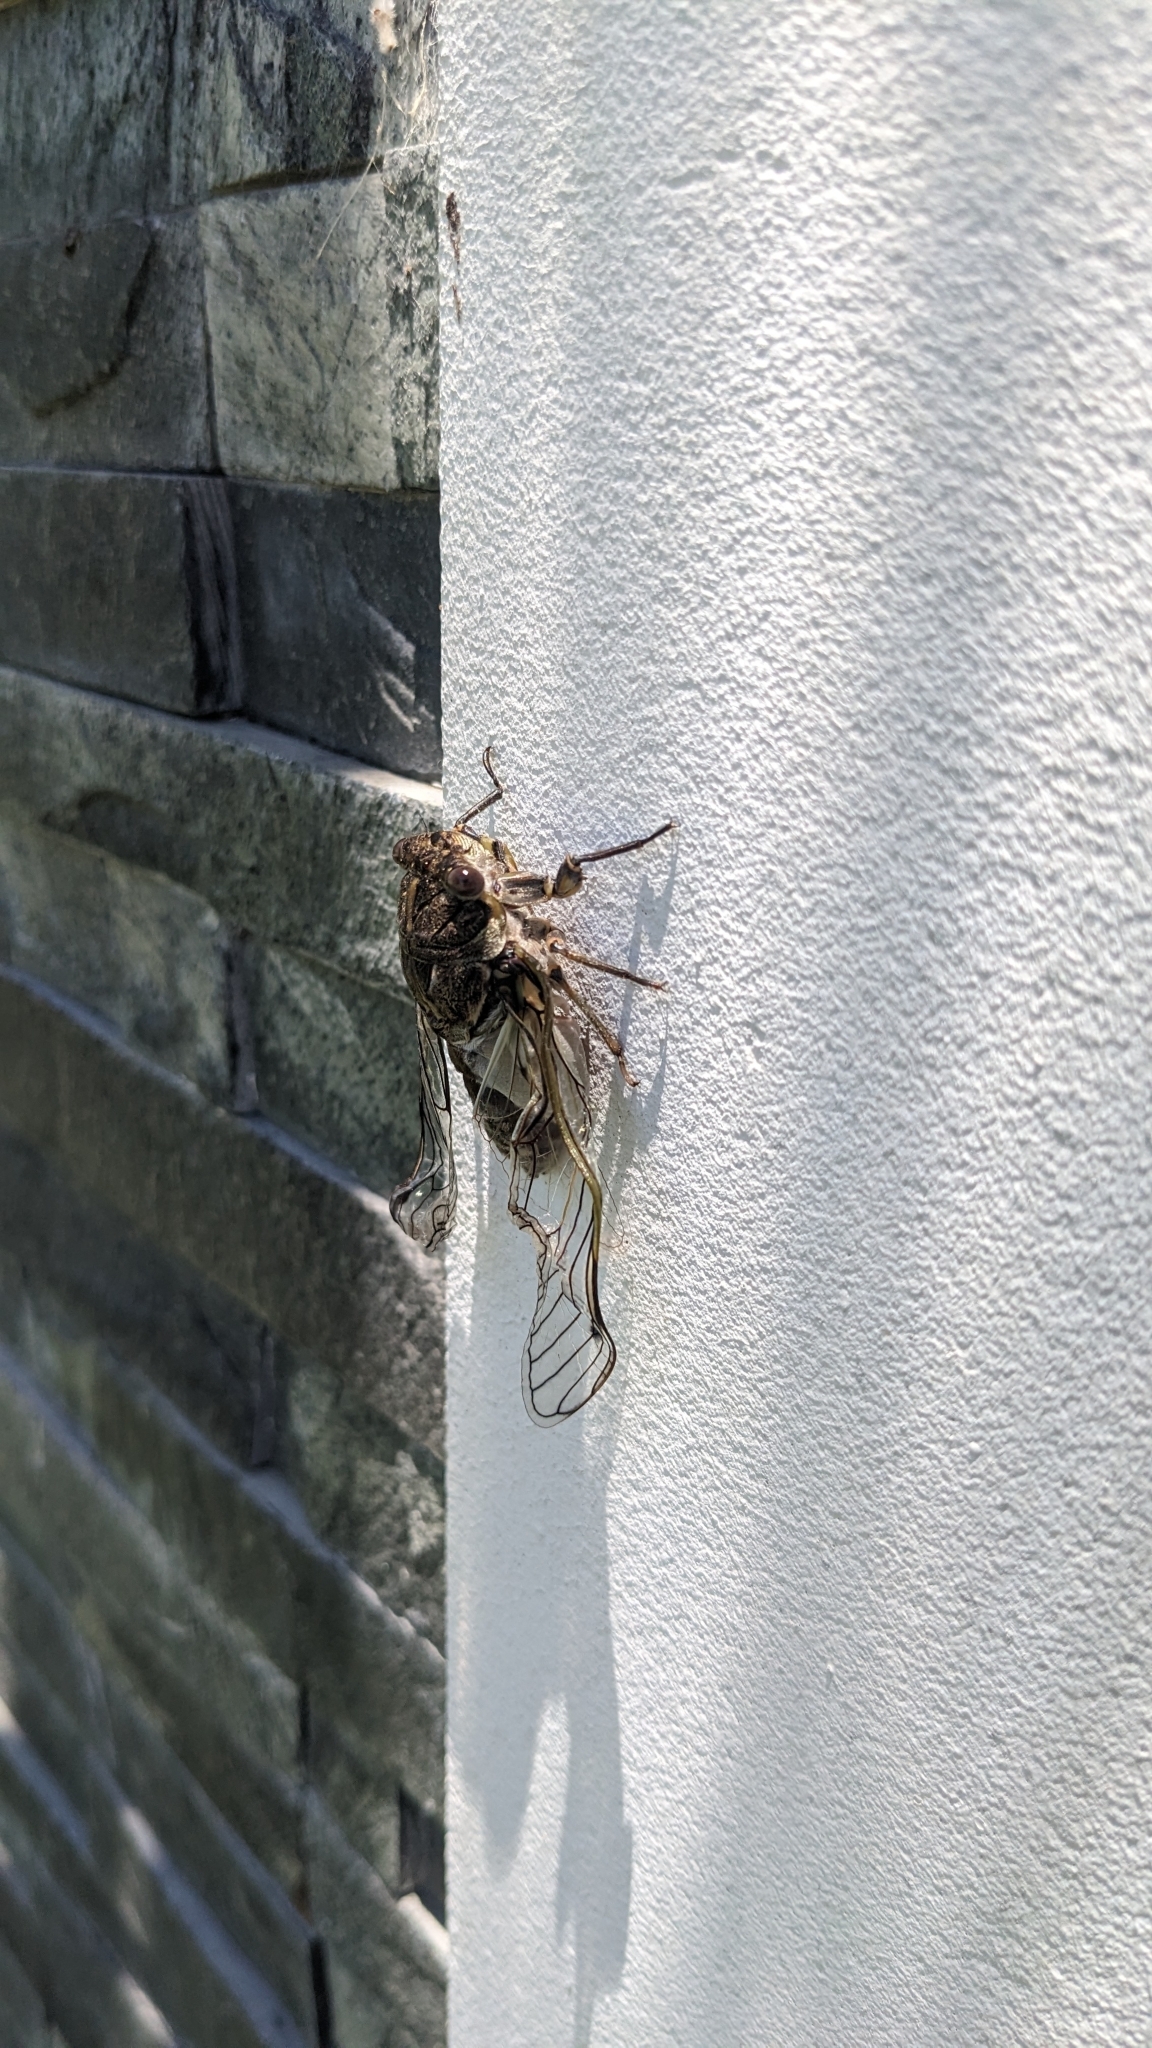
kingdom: Animalia
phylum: Arthropoda
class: Insecta
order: Hemiptera
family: Cicadidae
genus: Arunta
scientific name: Arunta perulata
